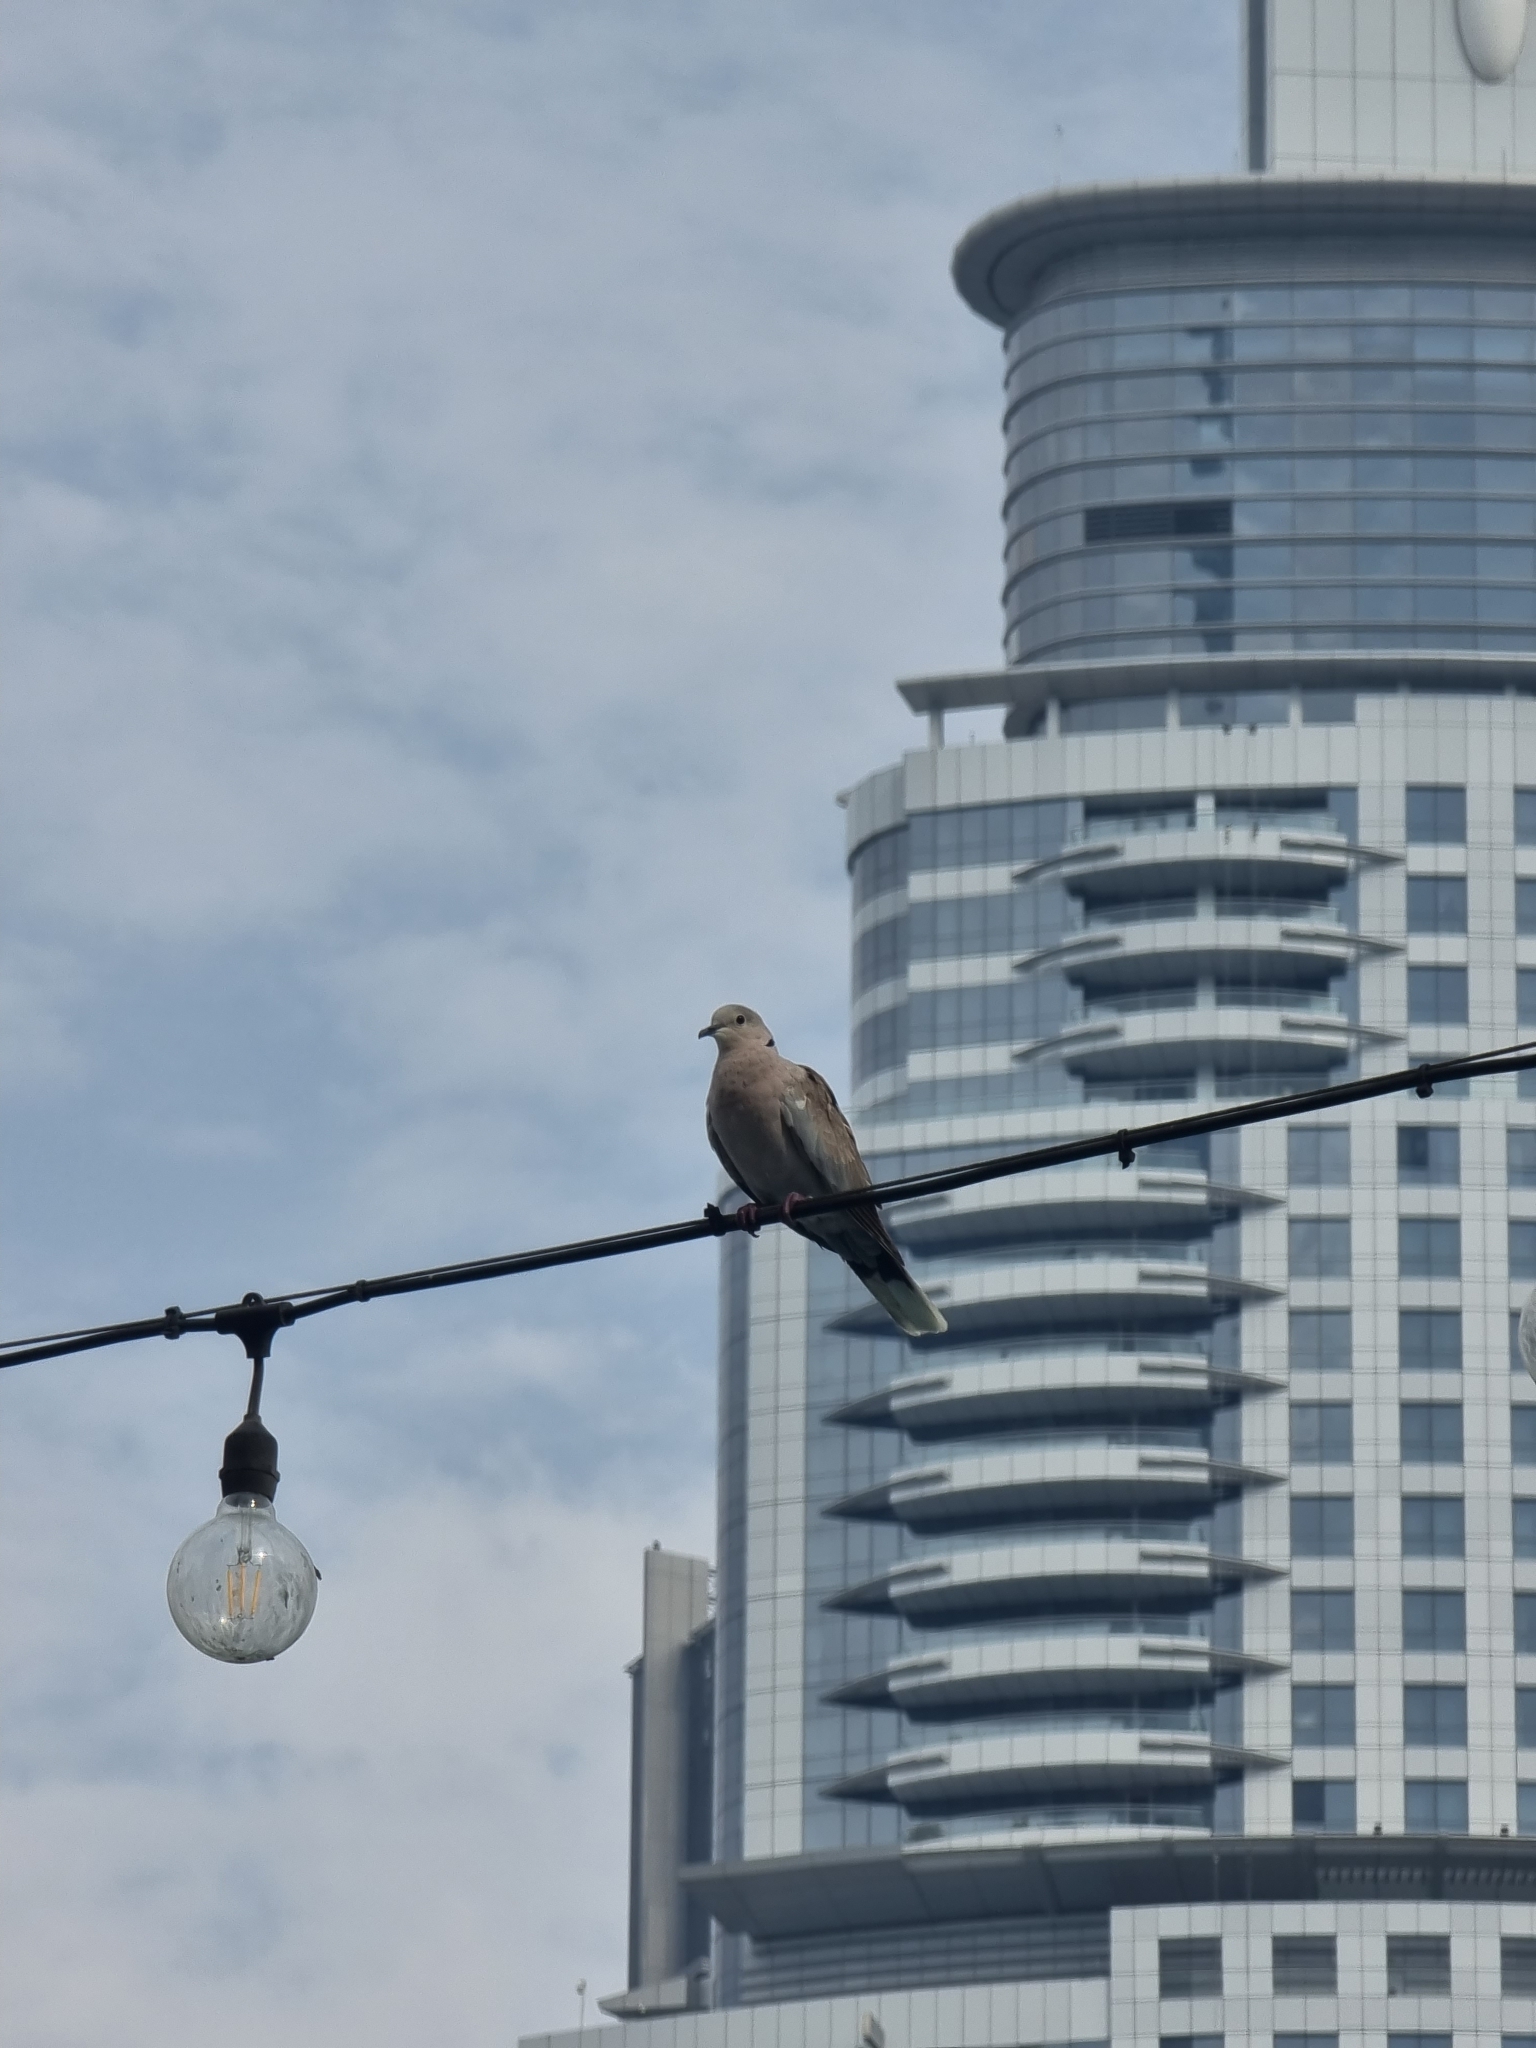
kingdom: Animalia
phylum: Chordata
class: Aves
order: Columbiformes
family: Columbidae
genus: Streptopelia
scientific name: Streptopelia decaocto
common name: Eurasian collared dove
